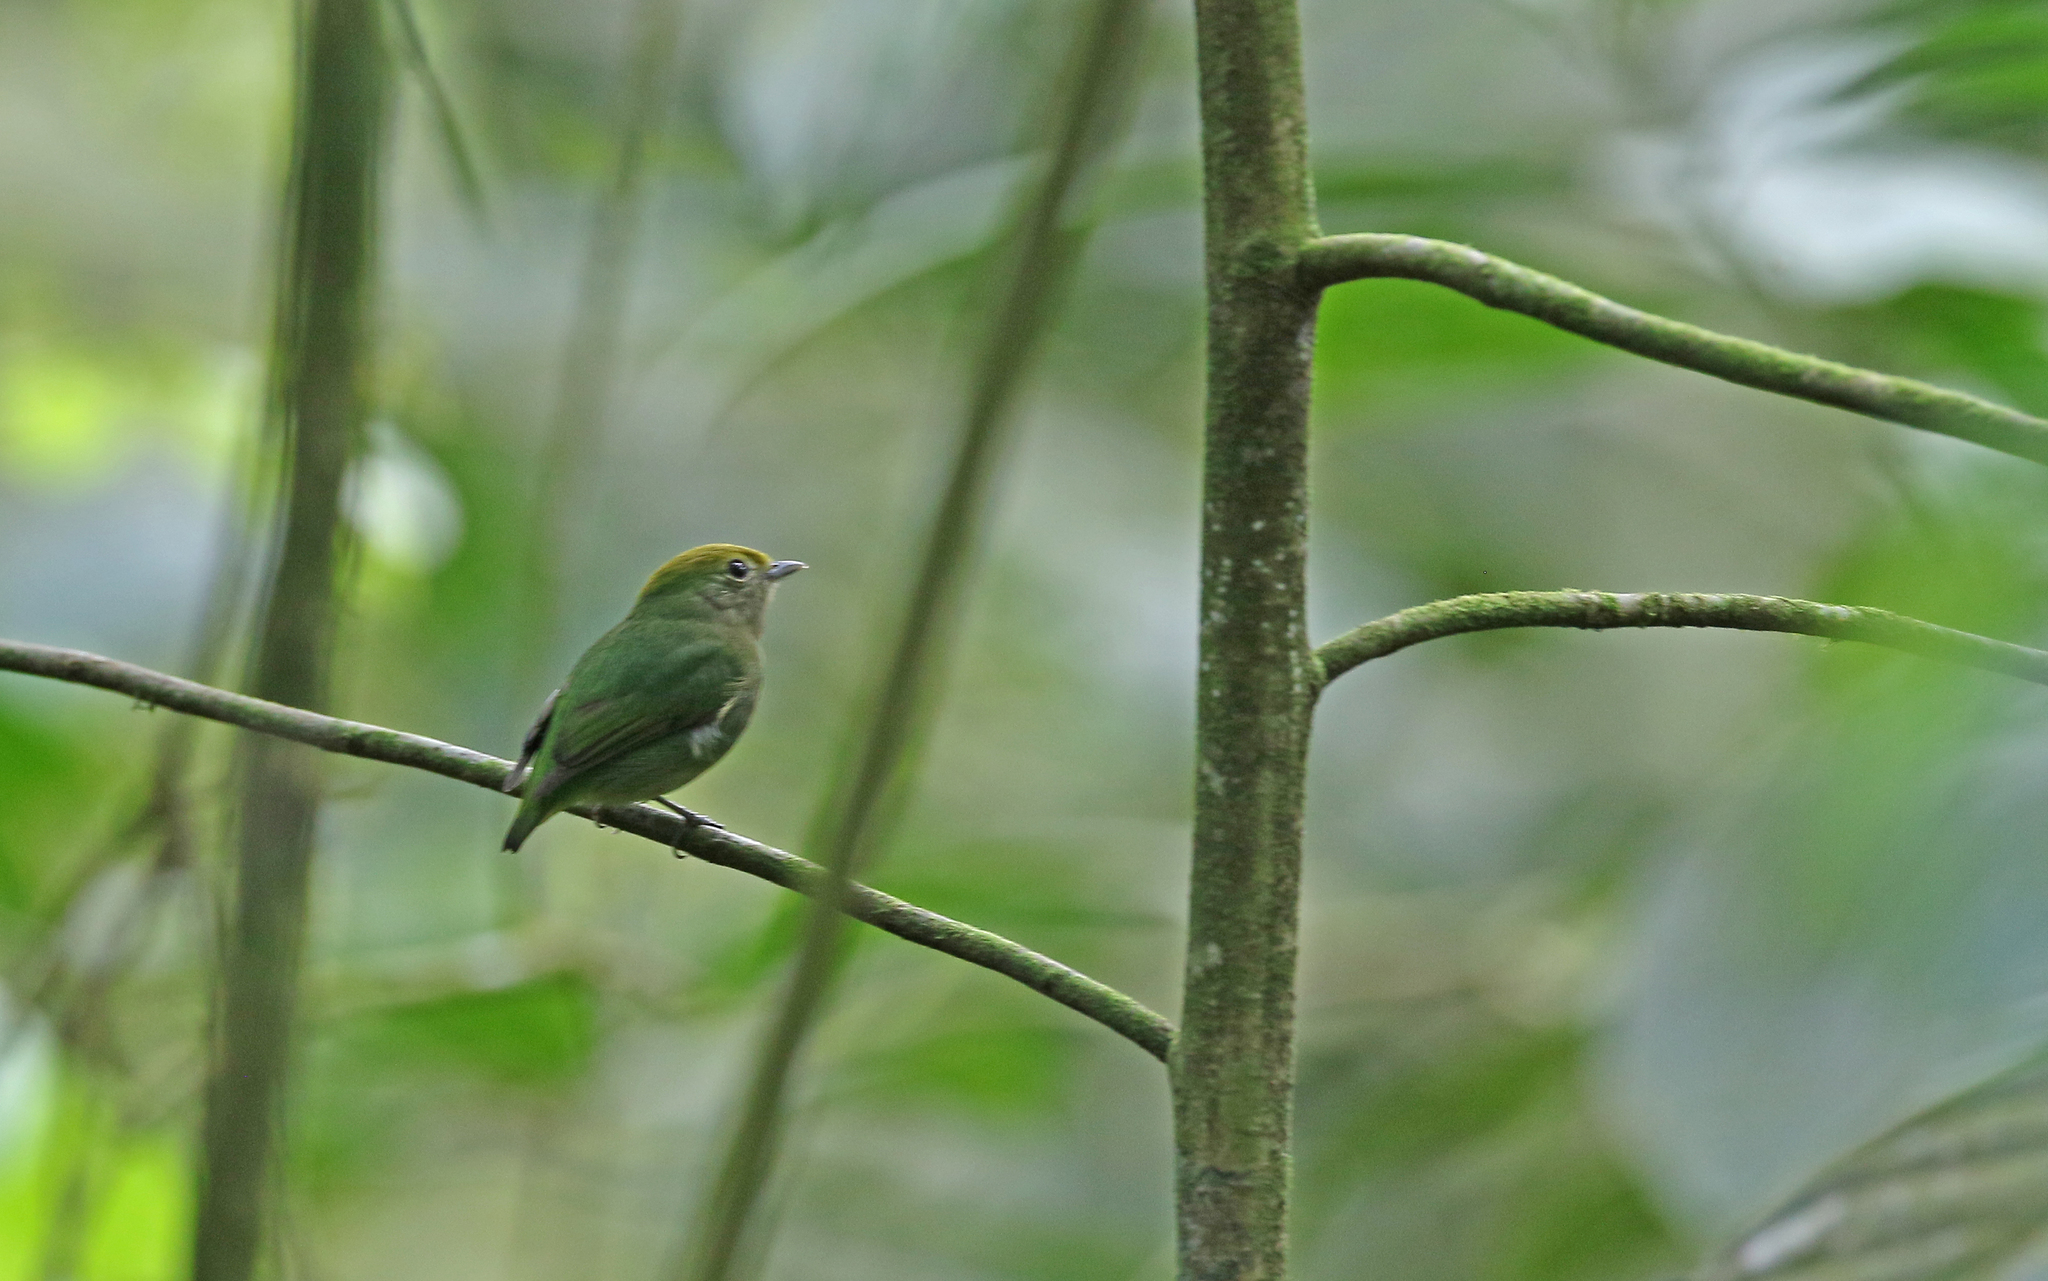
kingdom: Animalia
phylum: Chordata
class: Aves
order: Passeriformes
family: Pipridae
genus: Lepidothrix
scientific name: Lepidothrix isidorei
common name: Blue-rumped manakin
